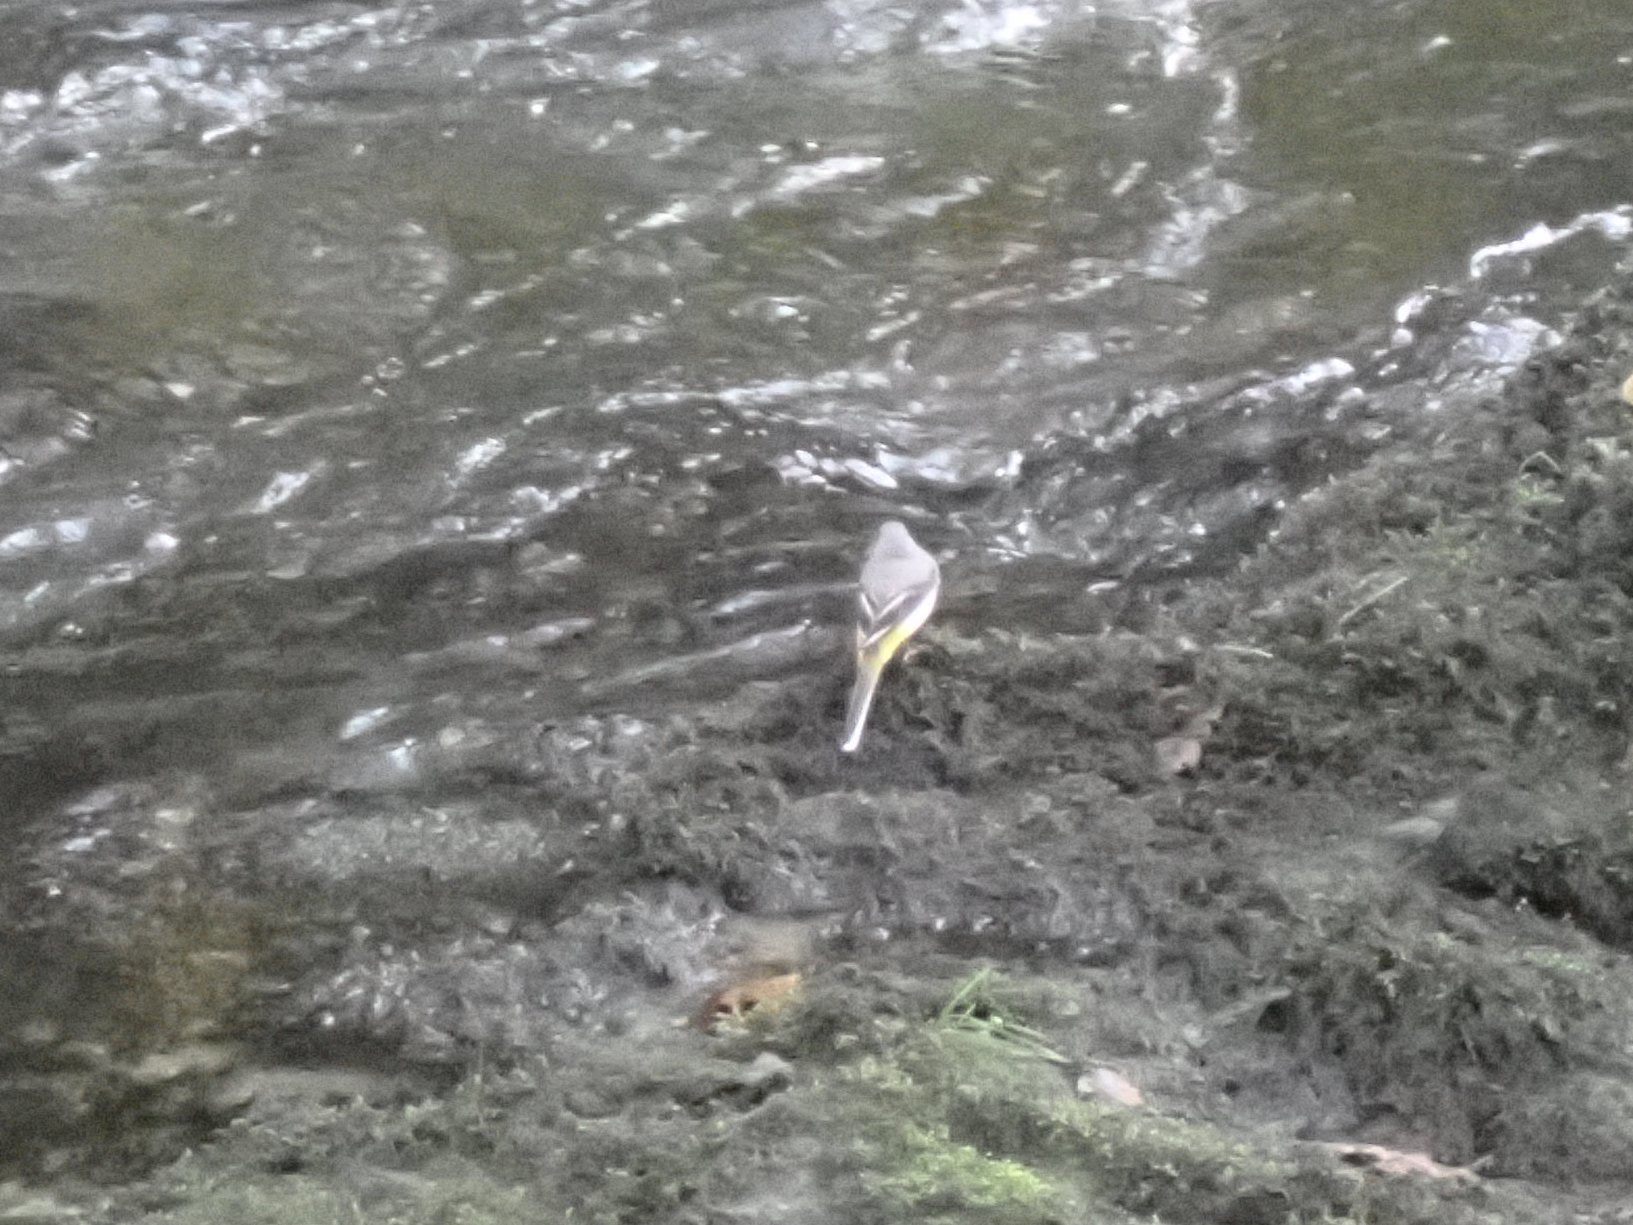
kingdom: Animalia
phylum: Chordata
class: Aves
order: Passeriformes
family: Motacillidae
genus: Motacilla
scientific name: Motacilla cinerea
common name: Grey wagtail
